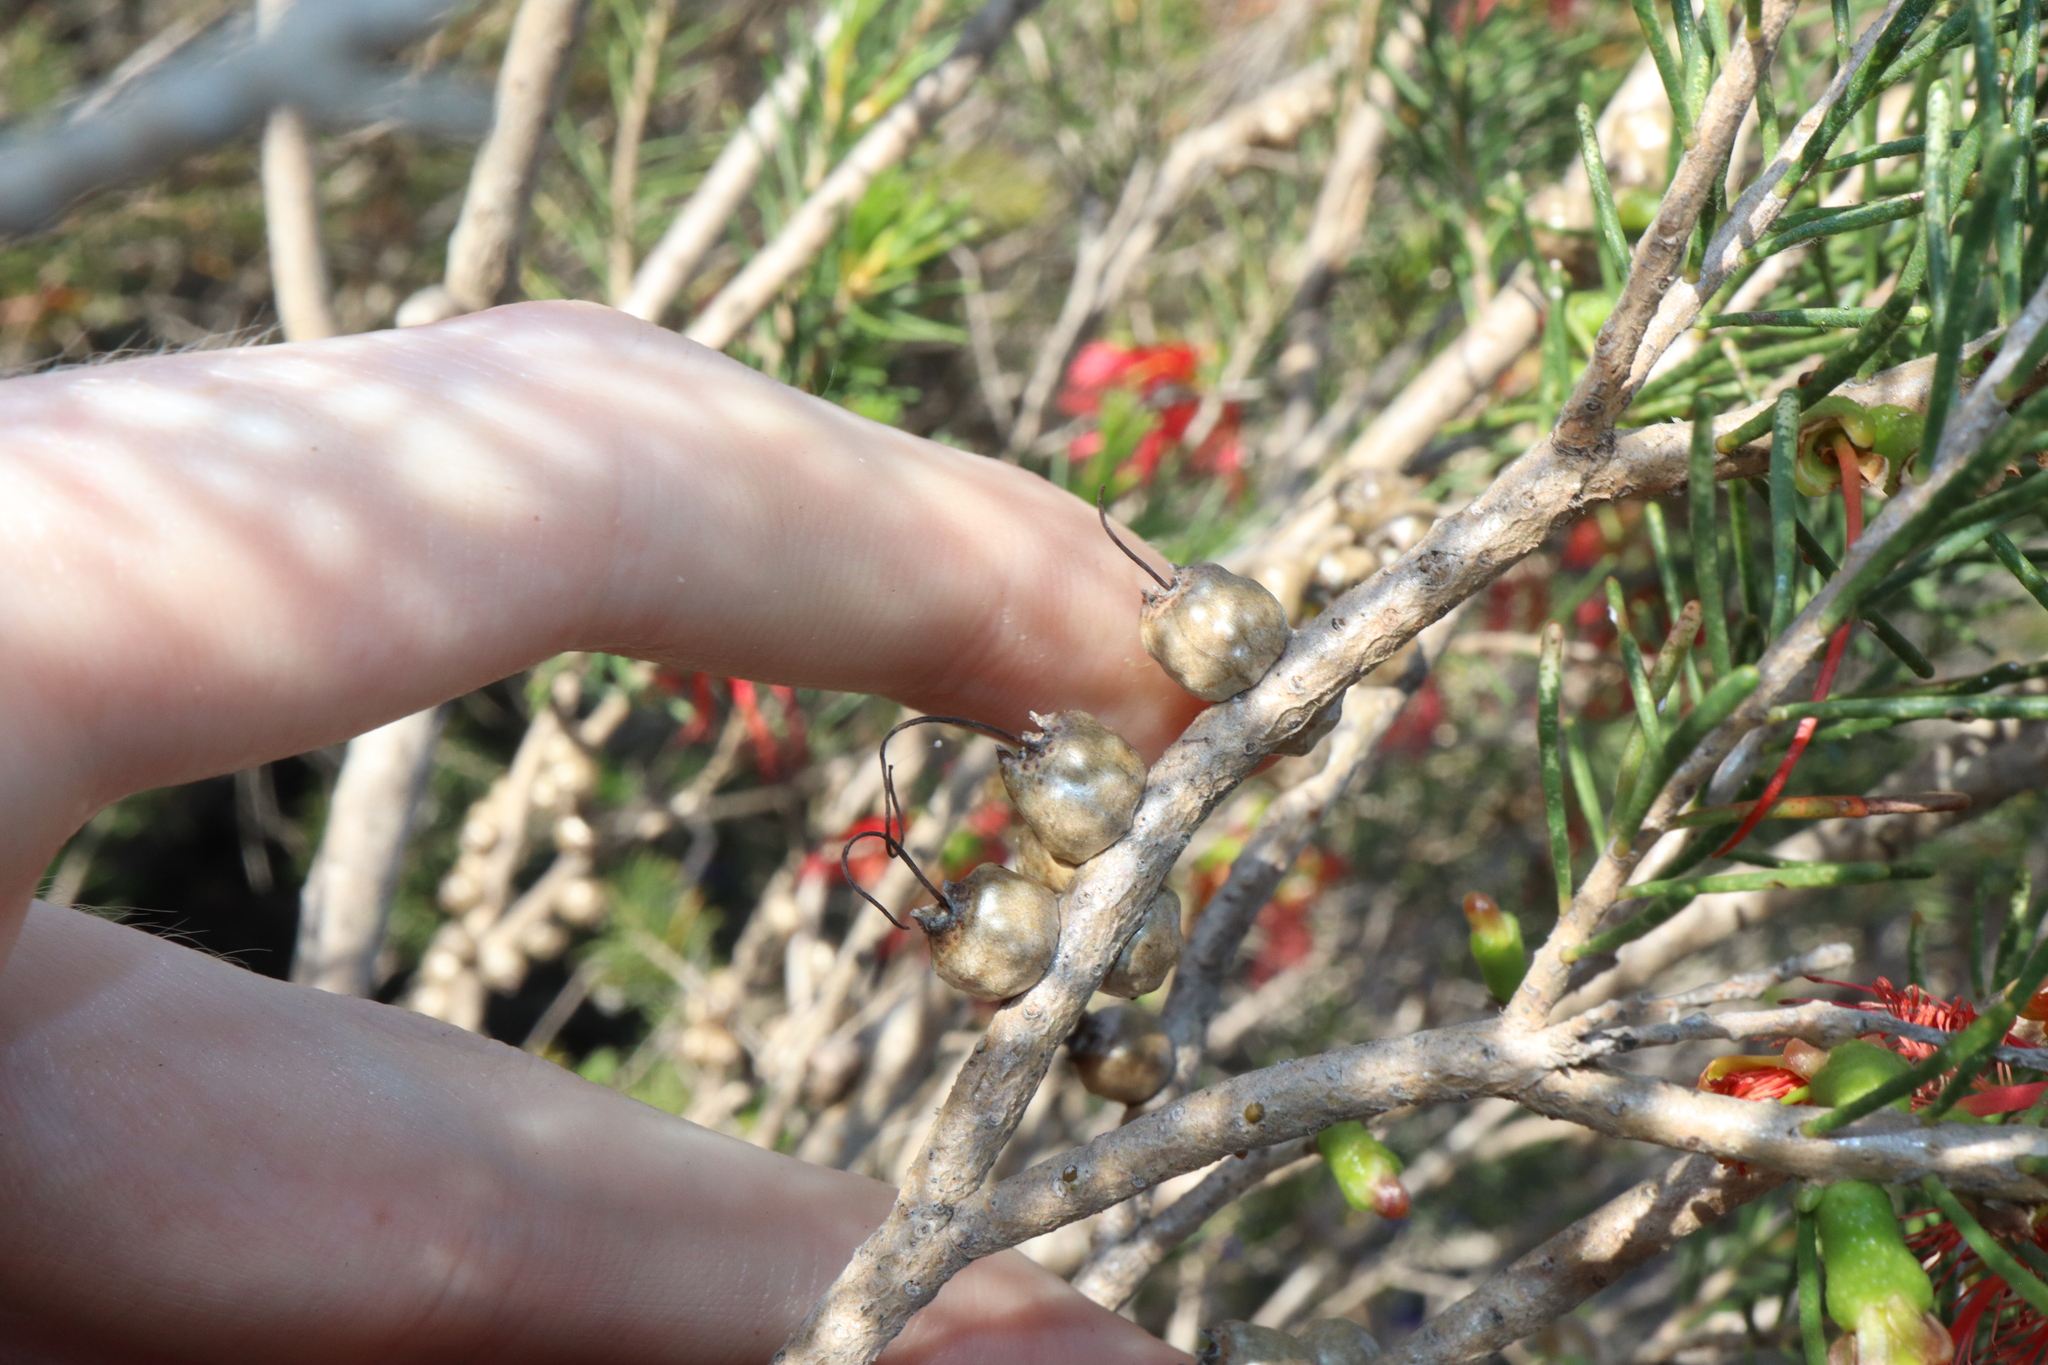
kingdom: Plantae
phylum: Tracheophyta
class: Magnoliopsida
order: Myrtales
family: Myrtaceae
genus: Melaleuca
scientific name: Melaleuca quadrifida
